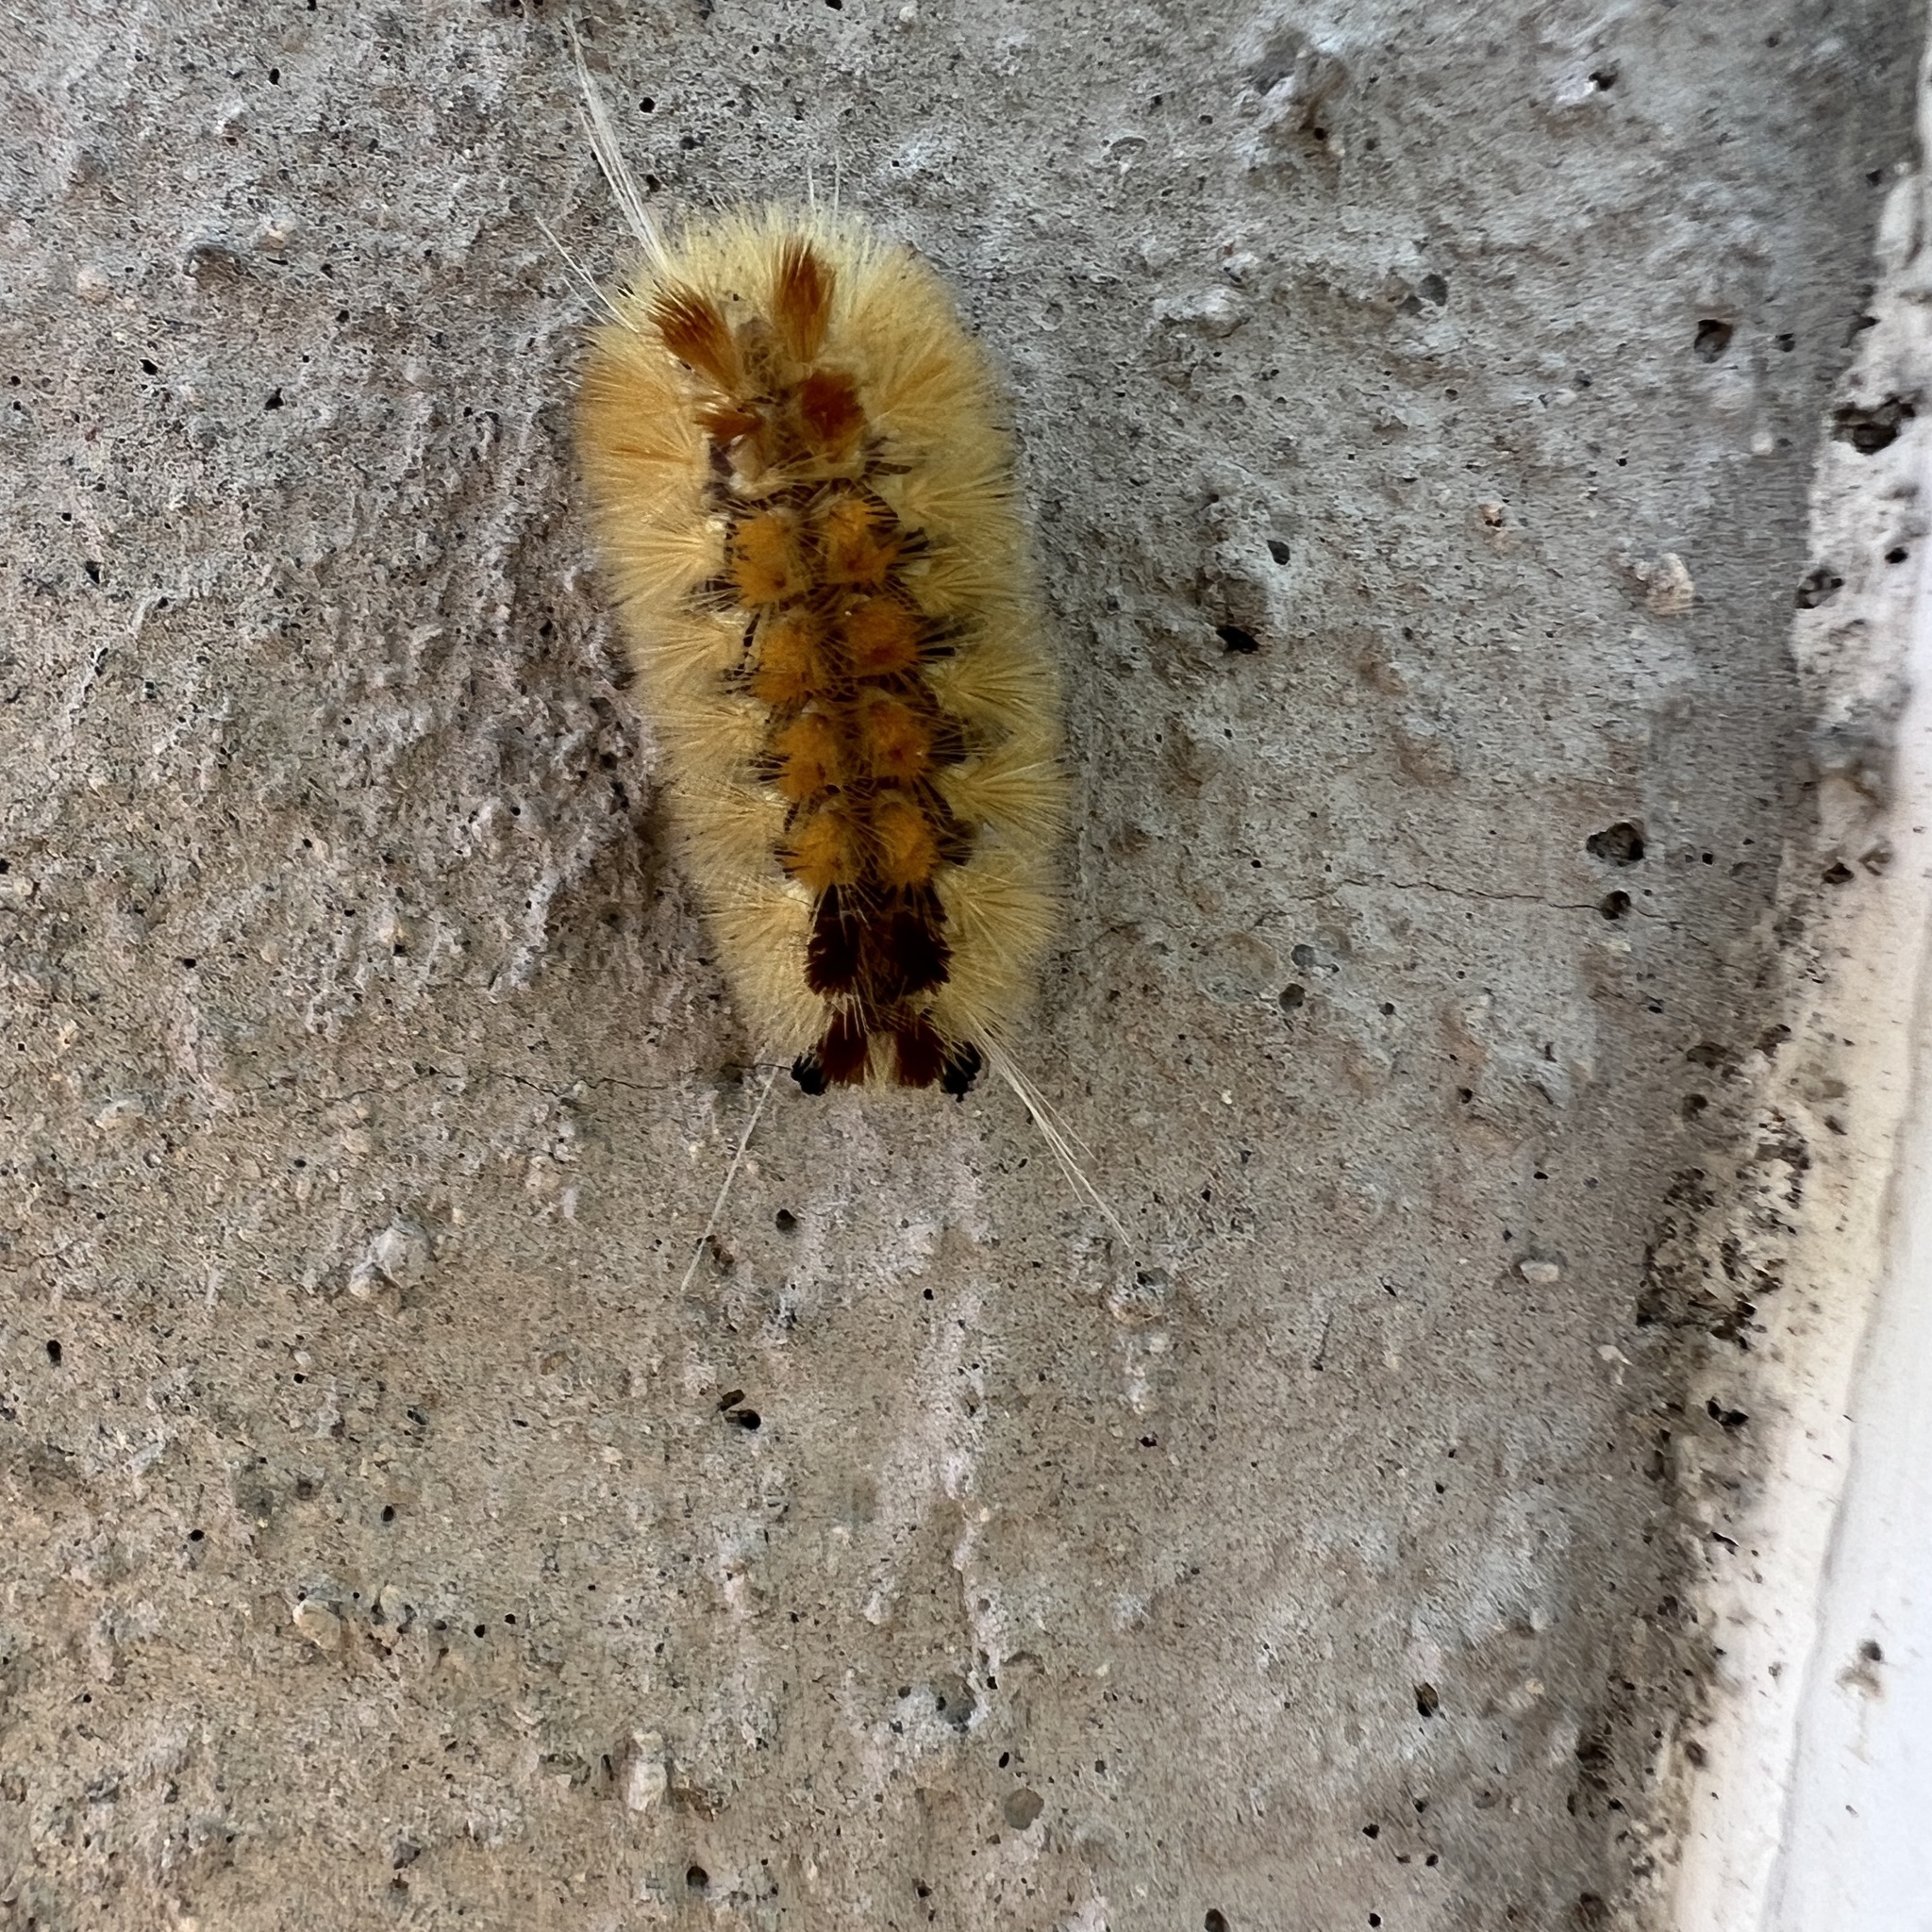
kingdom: Animalia
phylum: Arthropoda
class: Insecta
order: Lepidoptera
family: Erebidae
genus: Lophocampa
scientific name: Lophocampa annulosa
